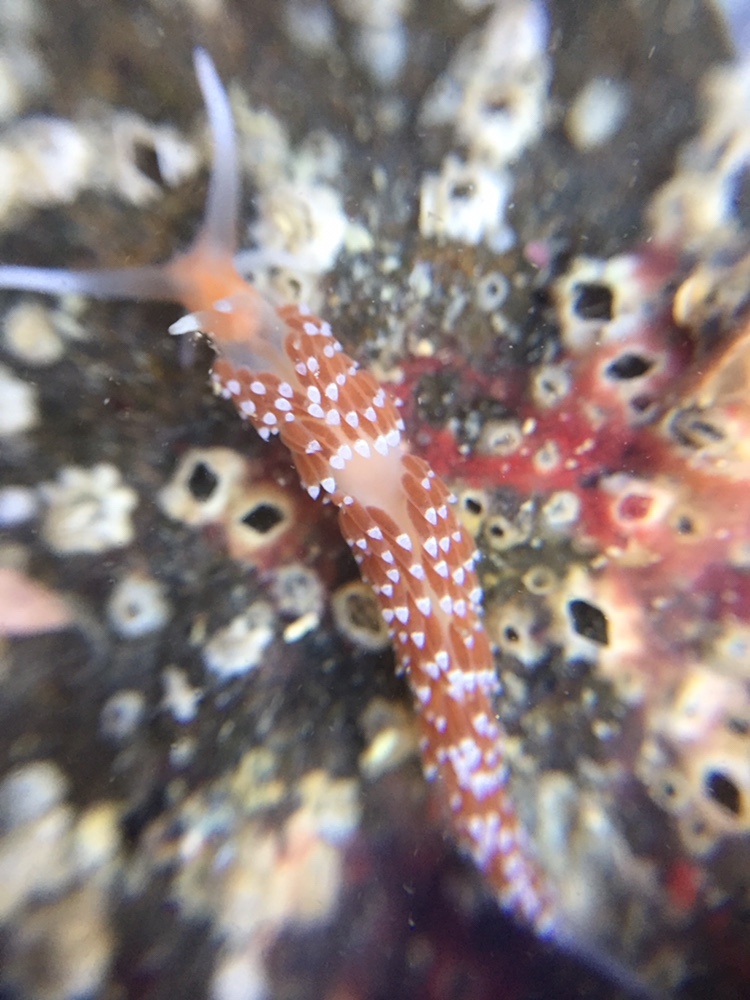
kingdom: Animalia
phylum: Mollusca
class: Gastropoda
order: Nudibranchia
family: Facelinidae
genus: Phidiana
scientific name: Phidiana milleri
